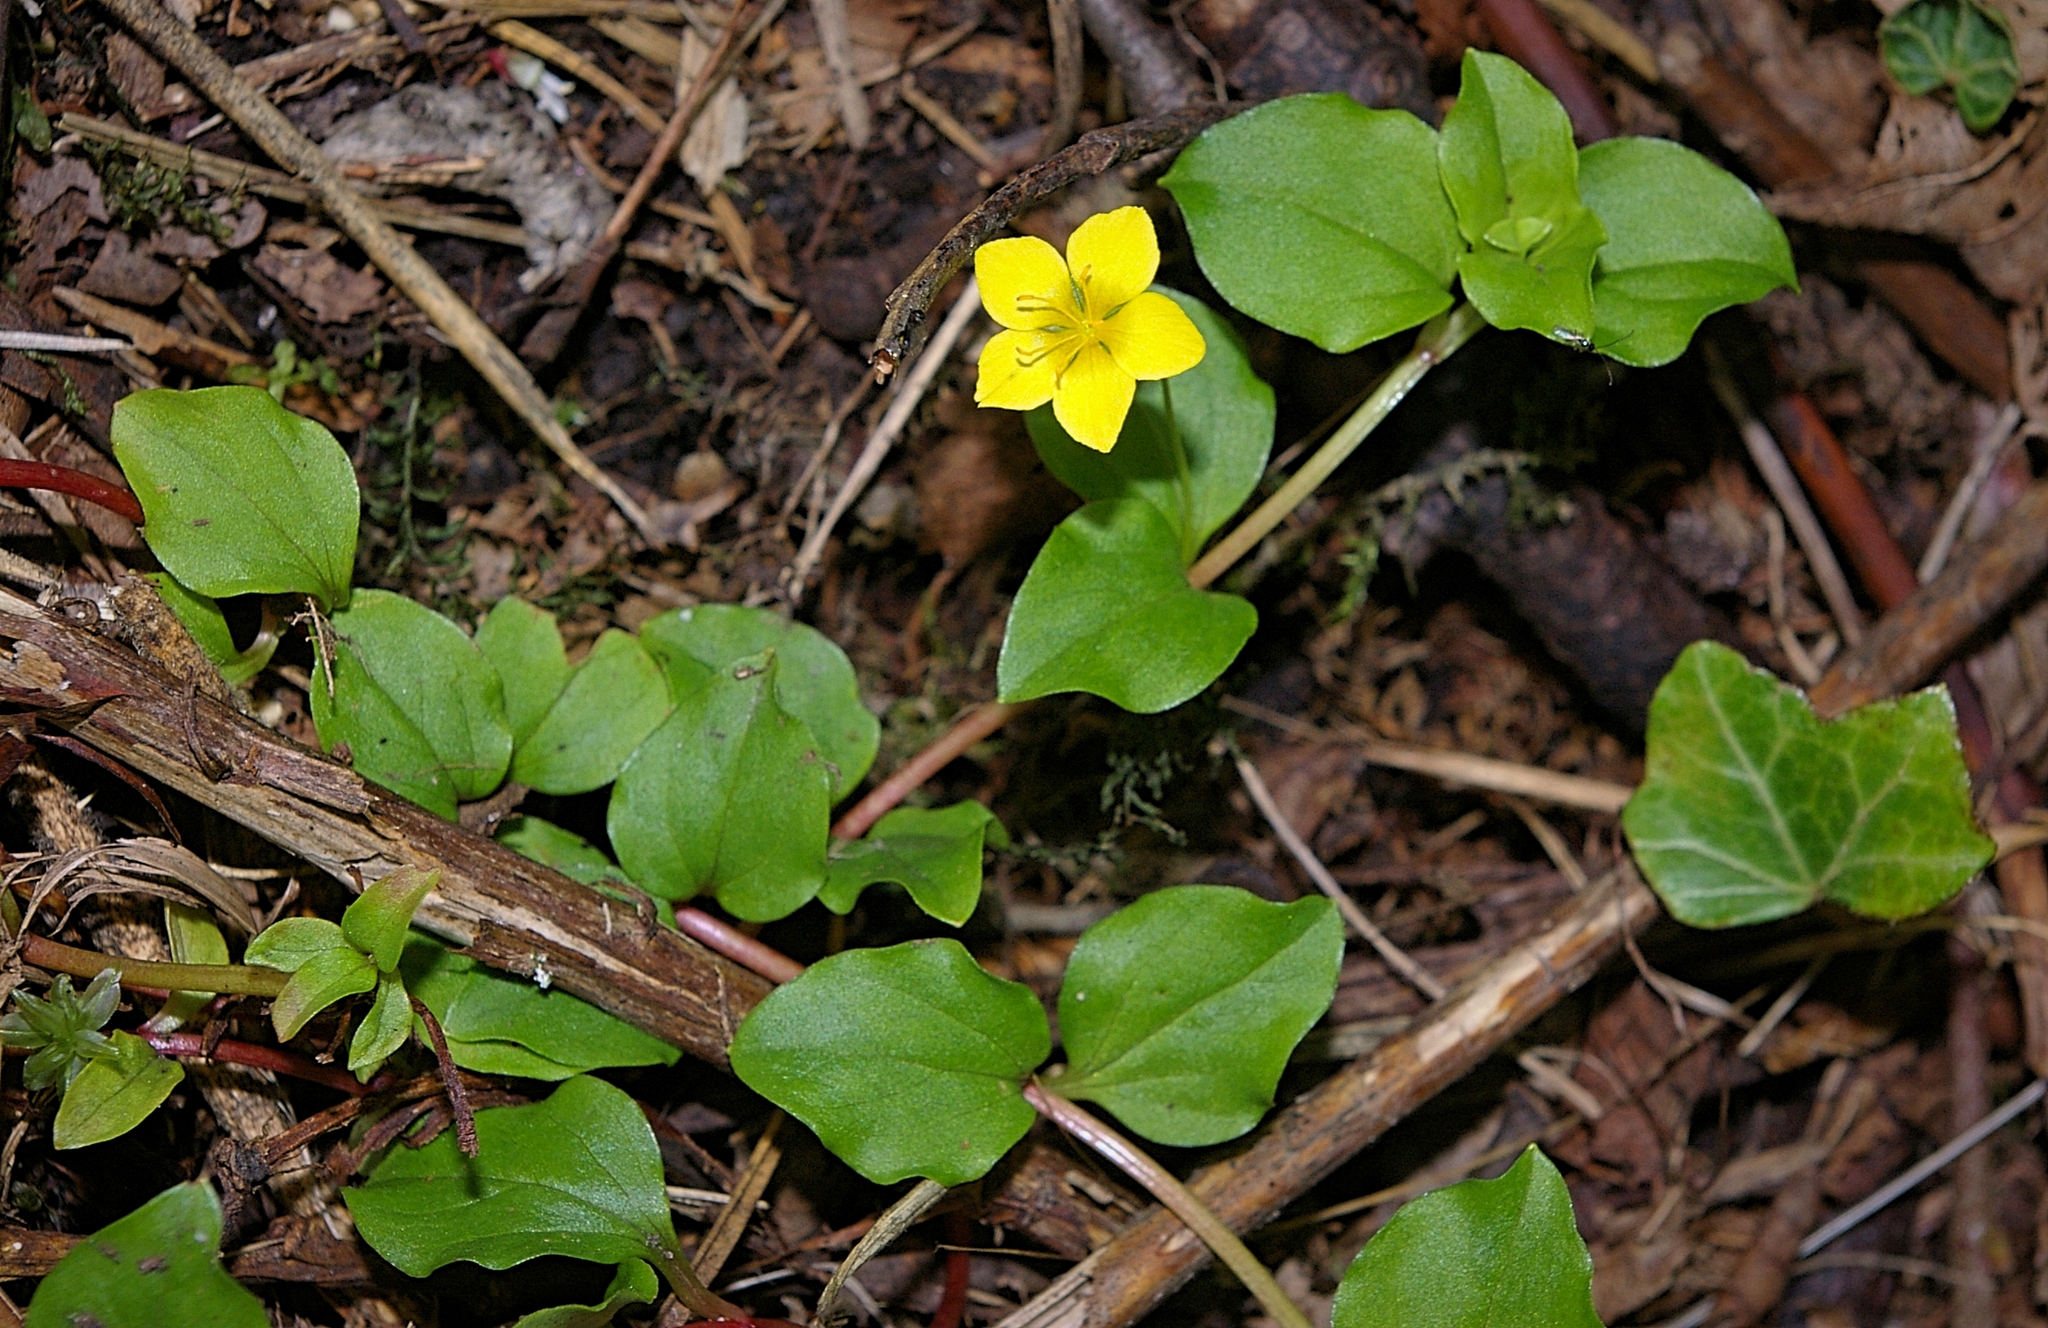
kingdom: Plantae
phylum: Tracheophyta
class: Magnoliopsida
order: Ericales
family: Primulaceae
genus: Lysimachia
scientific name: Lysimachia nemorum
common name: Yellow pimpernel
